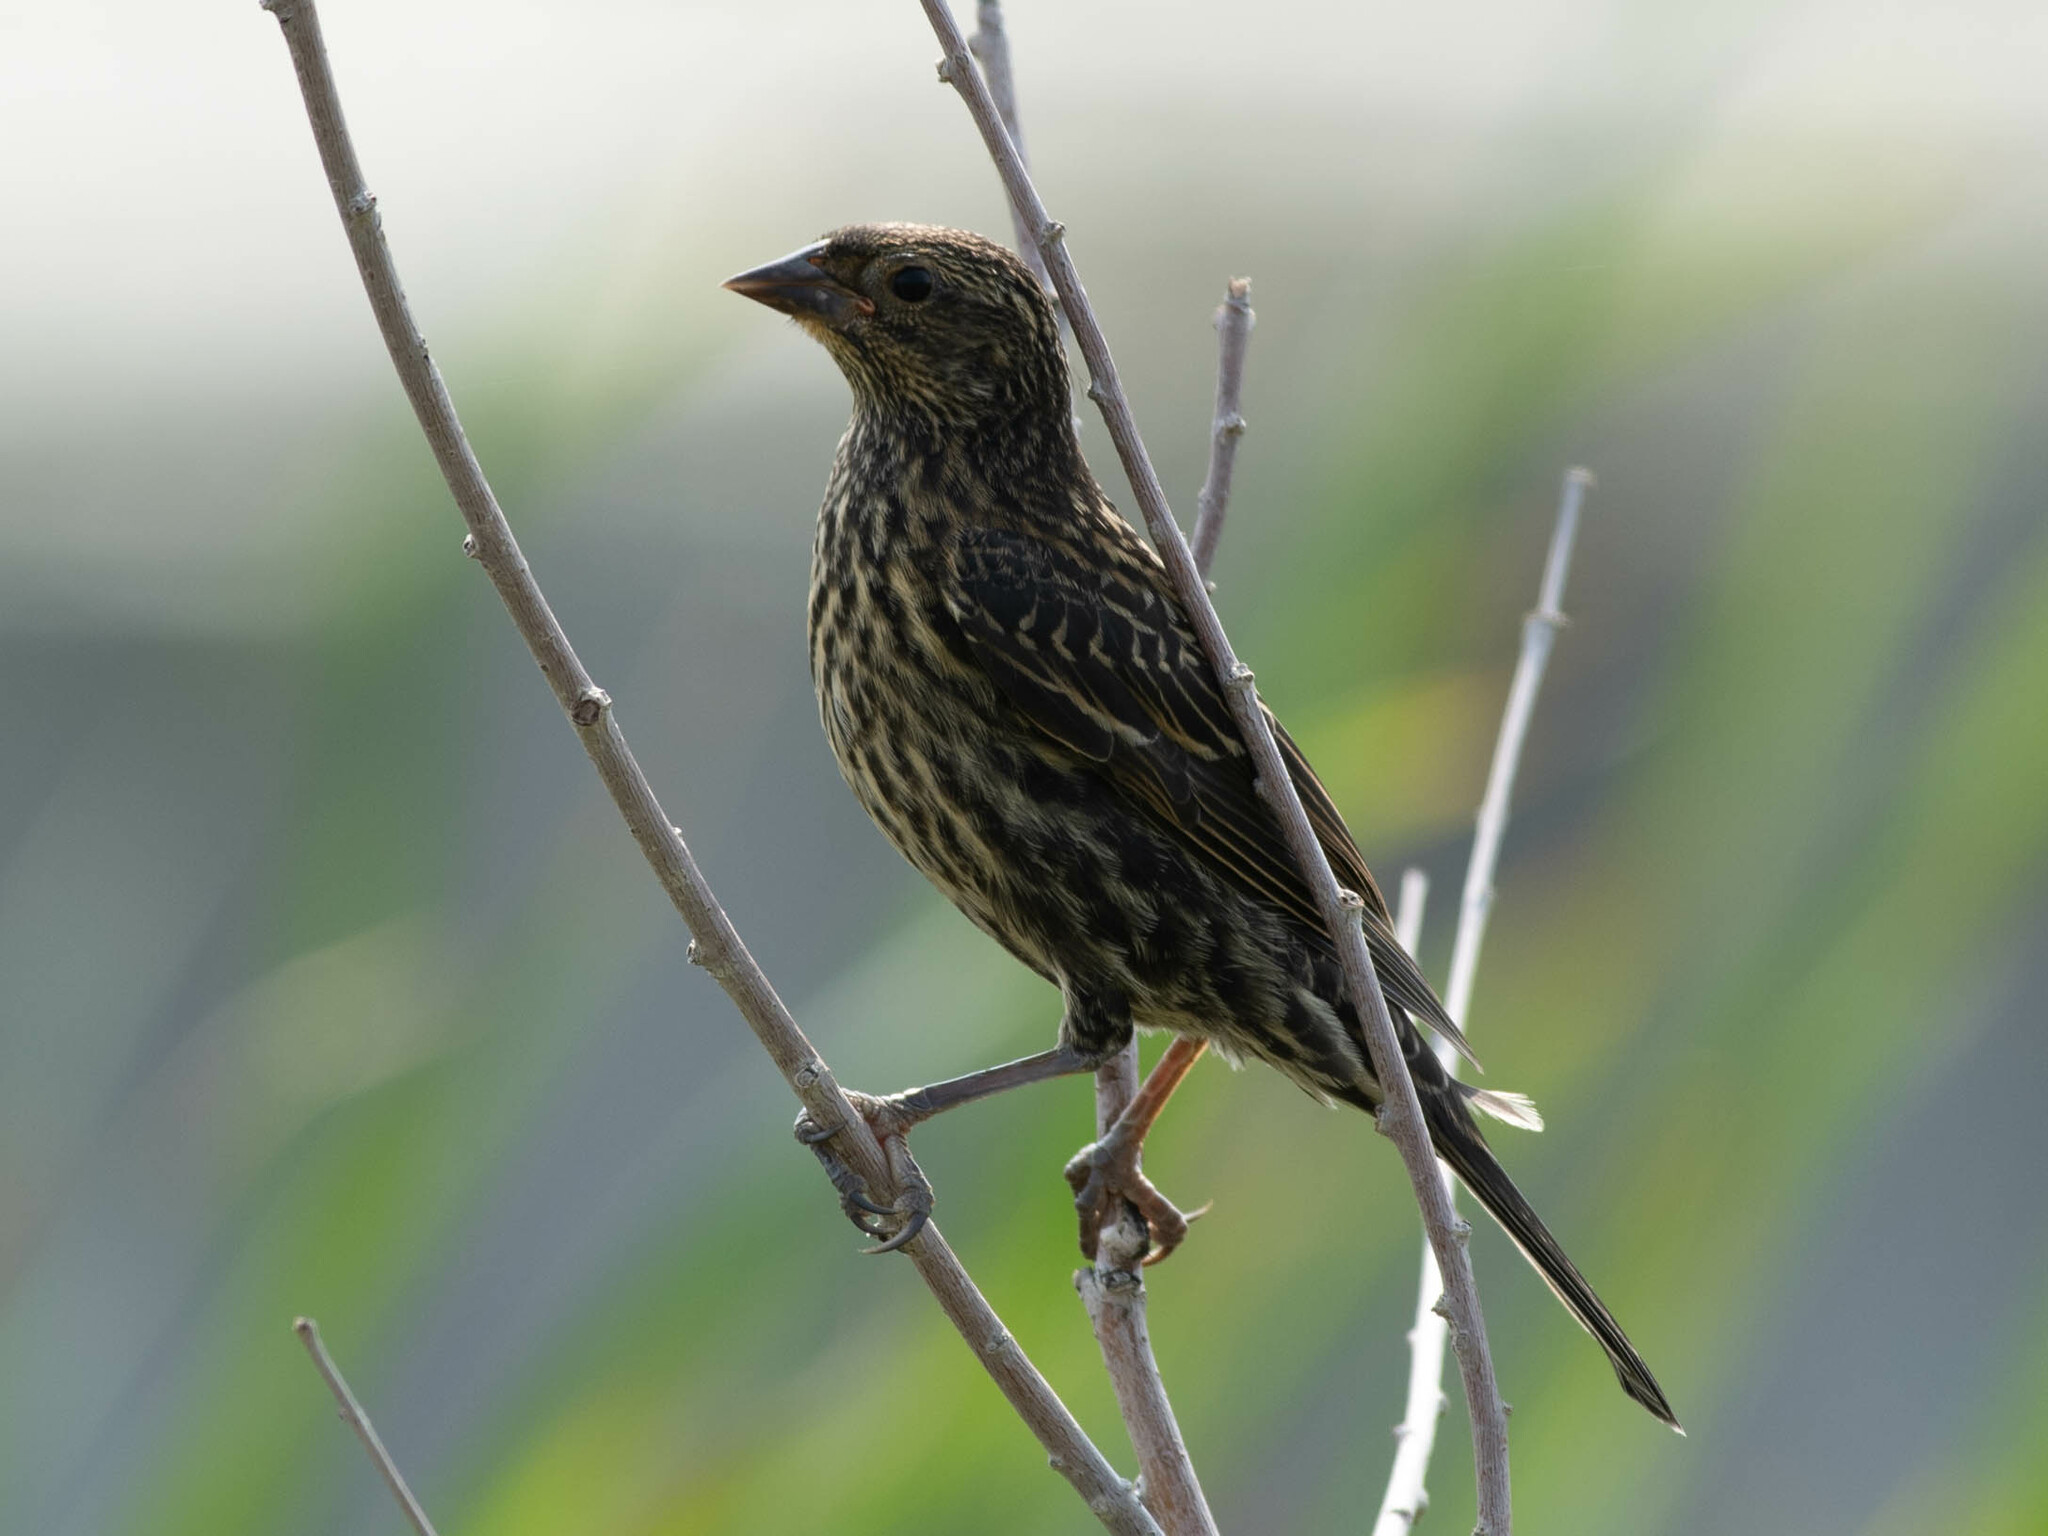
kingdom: Animalia
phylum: Chordata
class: Aves
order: Passeriformes
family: Icteridae
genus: Agelaius
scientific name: Agelaius phoeniceus
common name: Red-winged blackbird
